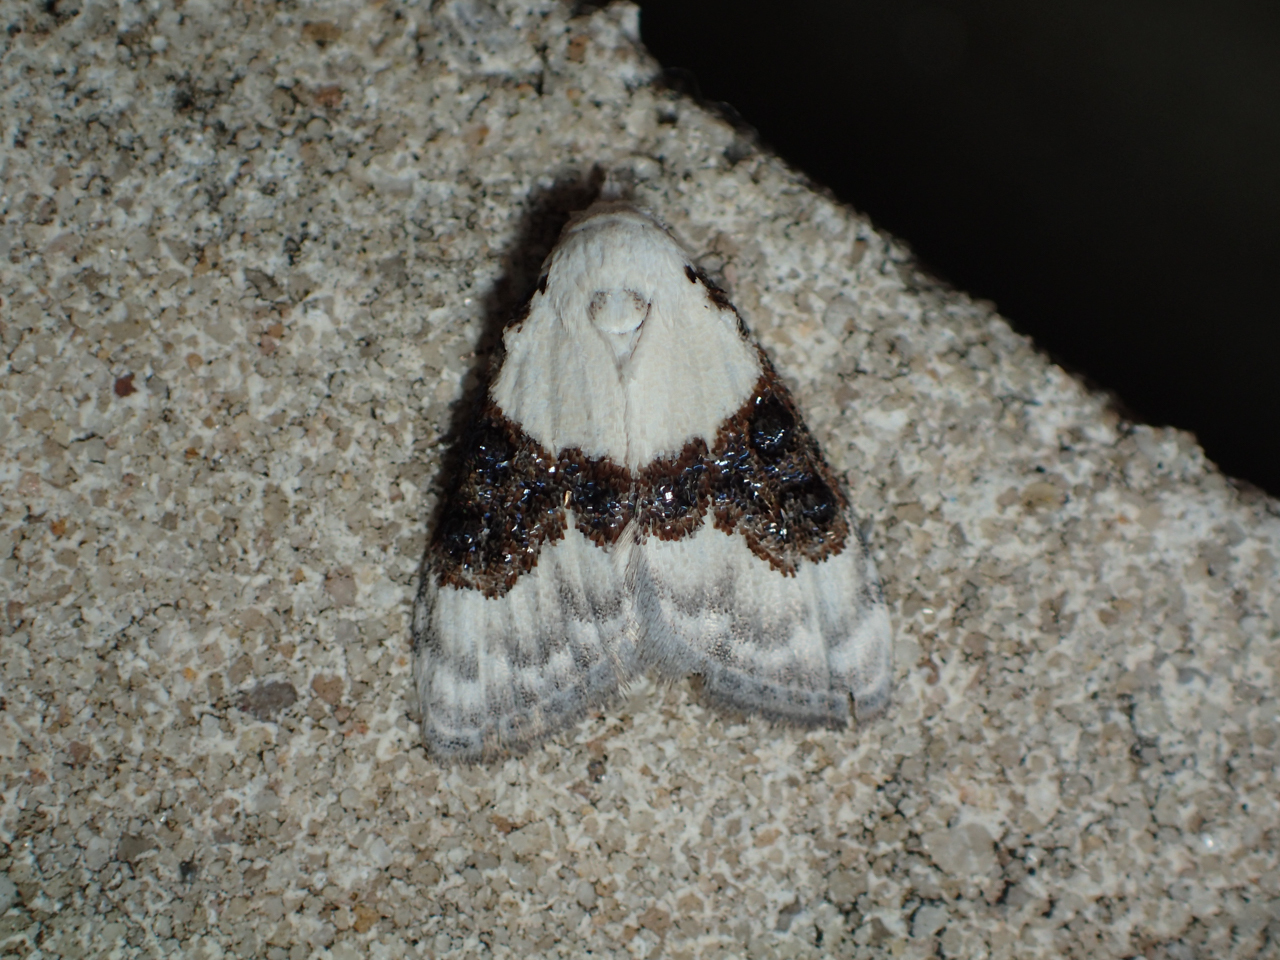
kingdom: Animalia
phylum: Arthropoda
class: Insecta
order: Lepidoptera
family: Nolidae
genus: Nola
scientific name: Nola pustulata
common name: Sharp-blotched nola moth
